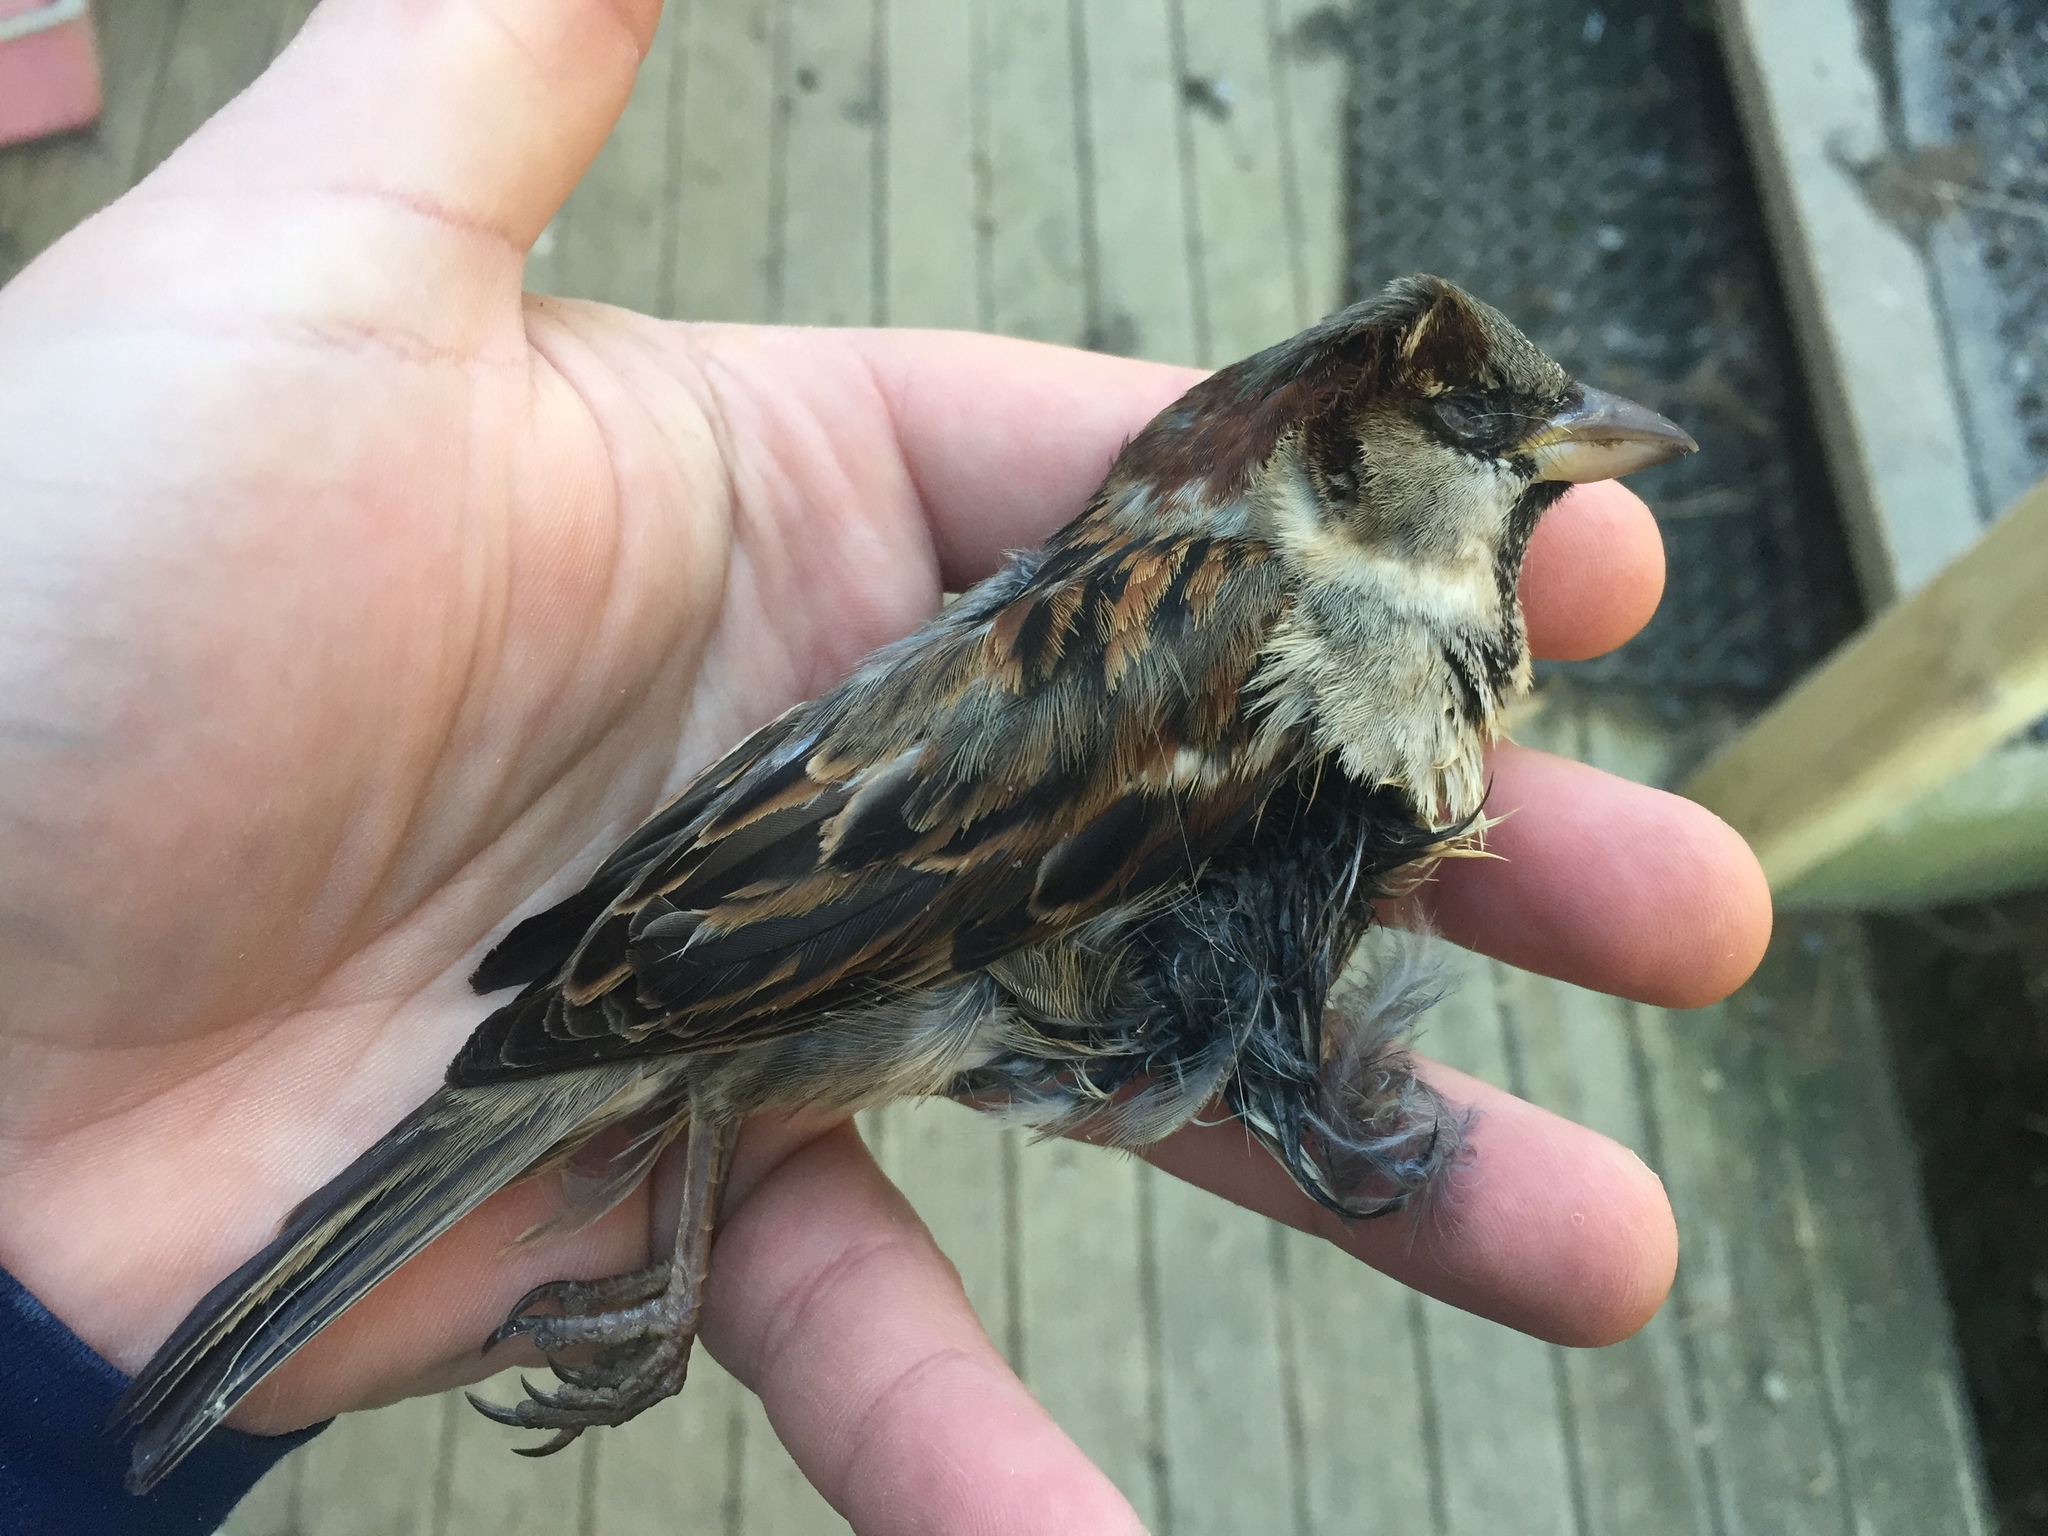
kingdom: Animalia
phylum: Chordata
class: Aves
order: Passeriformes
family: Passeridae
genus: Passer
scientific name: Passer domesticus
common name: House sparrow
